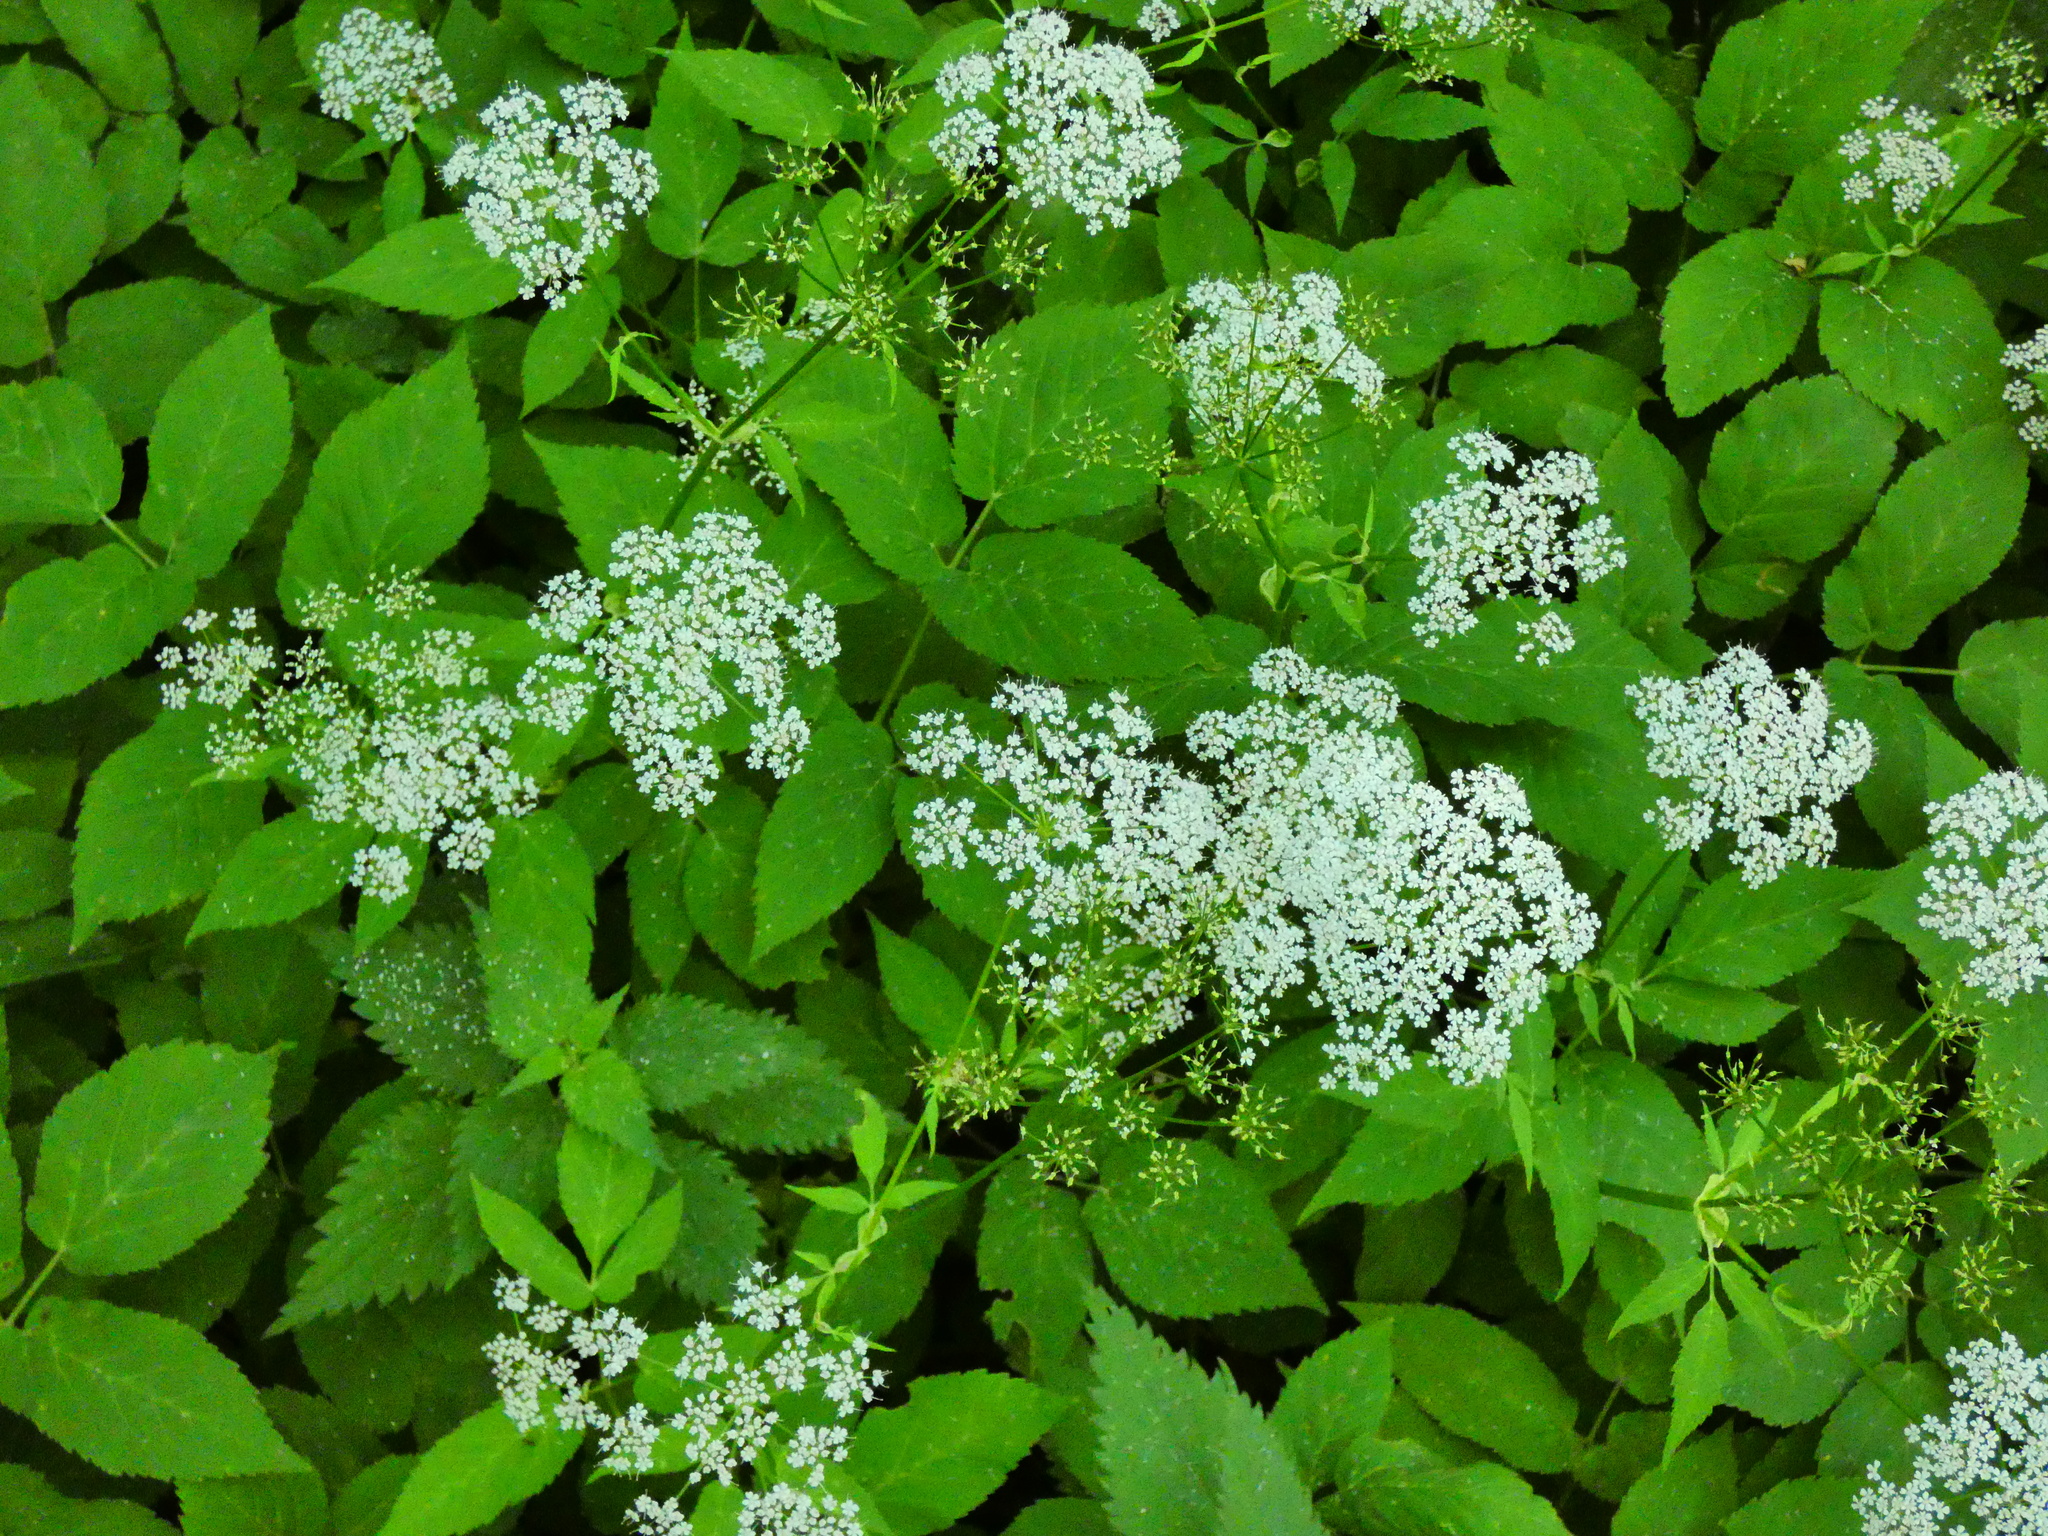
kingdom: Plantae
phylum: Tracheophyta
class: Magnoliopsida
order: Apiales
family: Apiaceae
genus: Aegopodium
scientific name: Aegopodium podagraria
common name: Ground-elder
